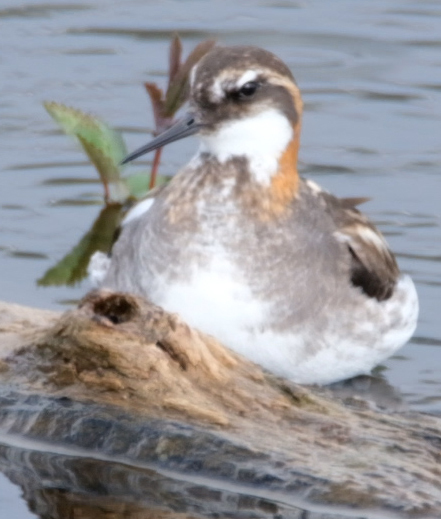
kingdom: Animalia
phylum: Chordata
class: Aves
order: Charadriiformes
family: Scolopacidae
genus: Phalaropus
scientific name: Phalaropus lobatus
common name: Red-necked phalarope
